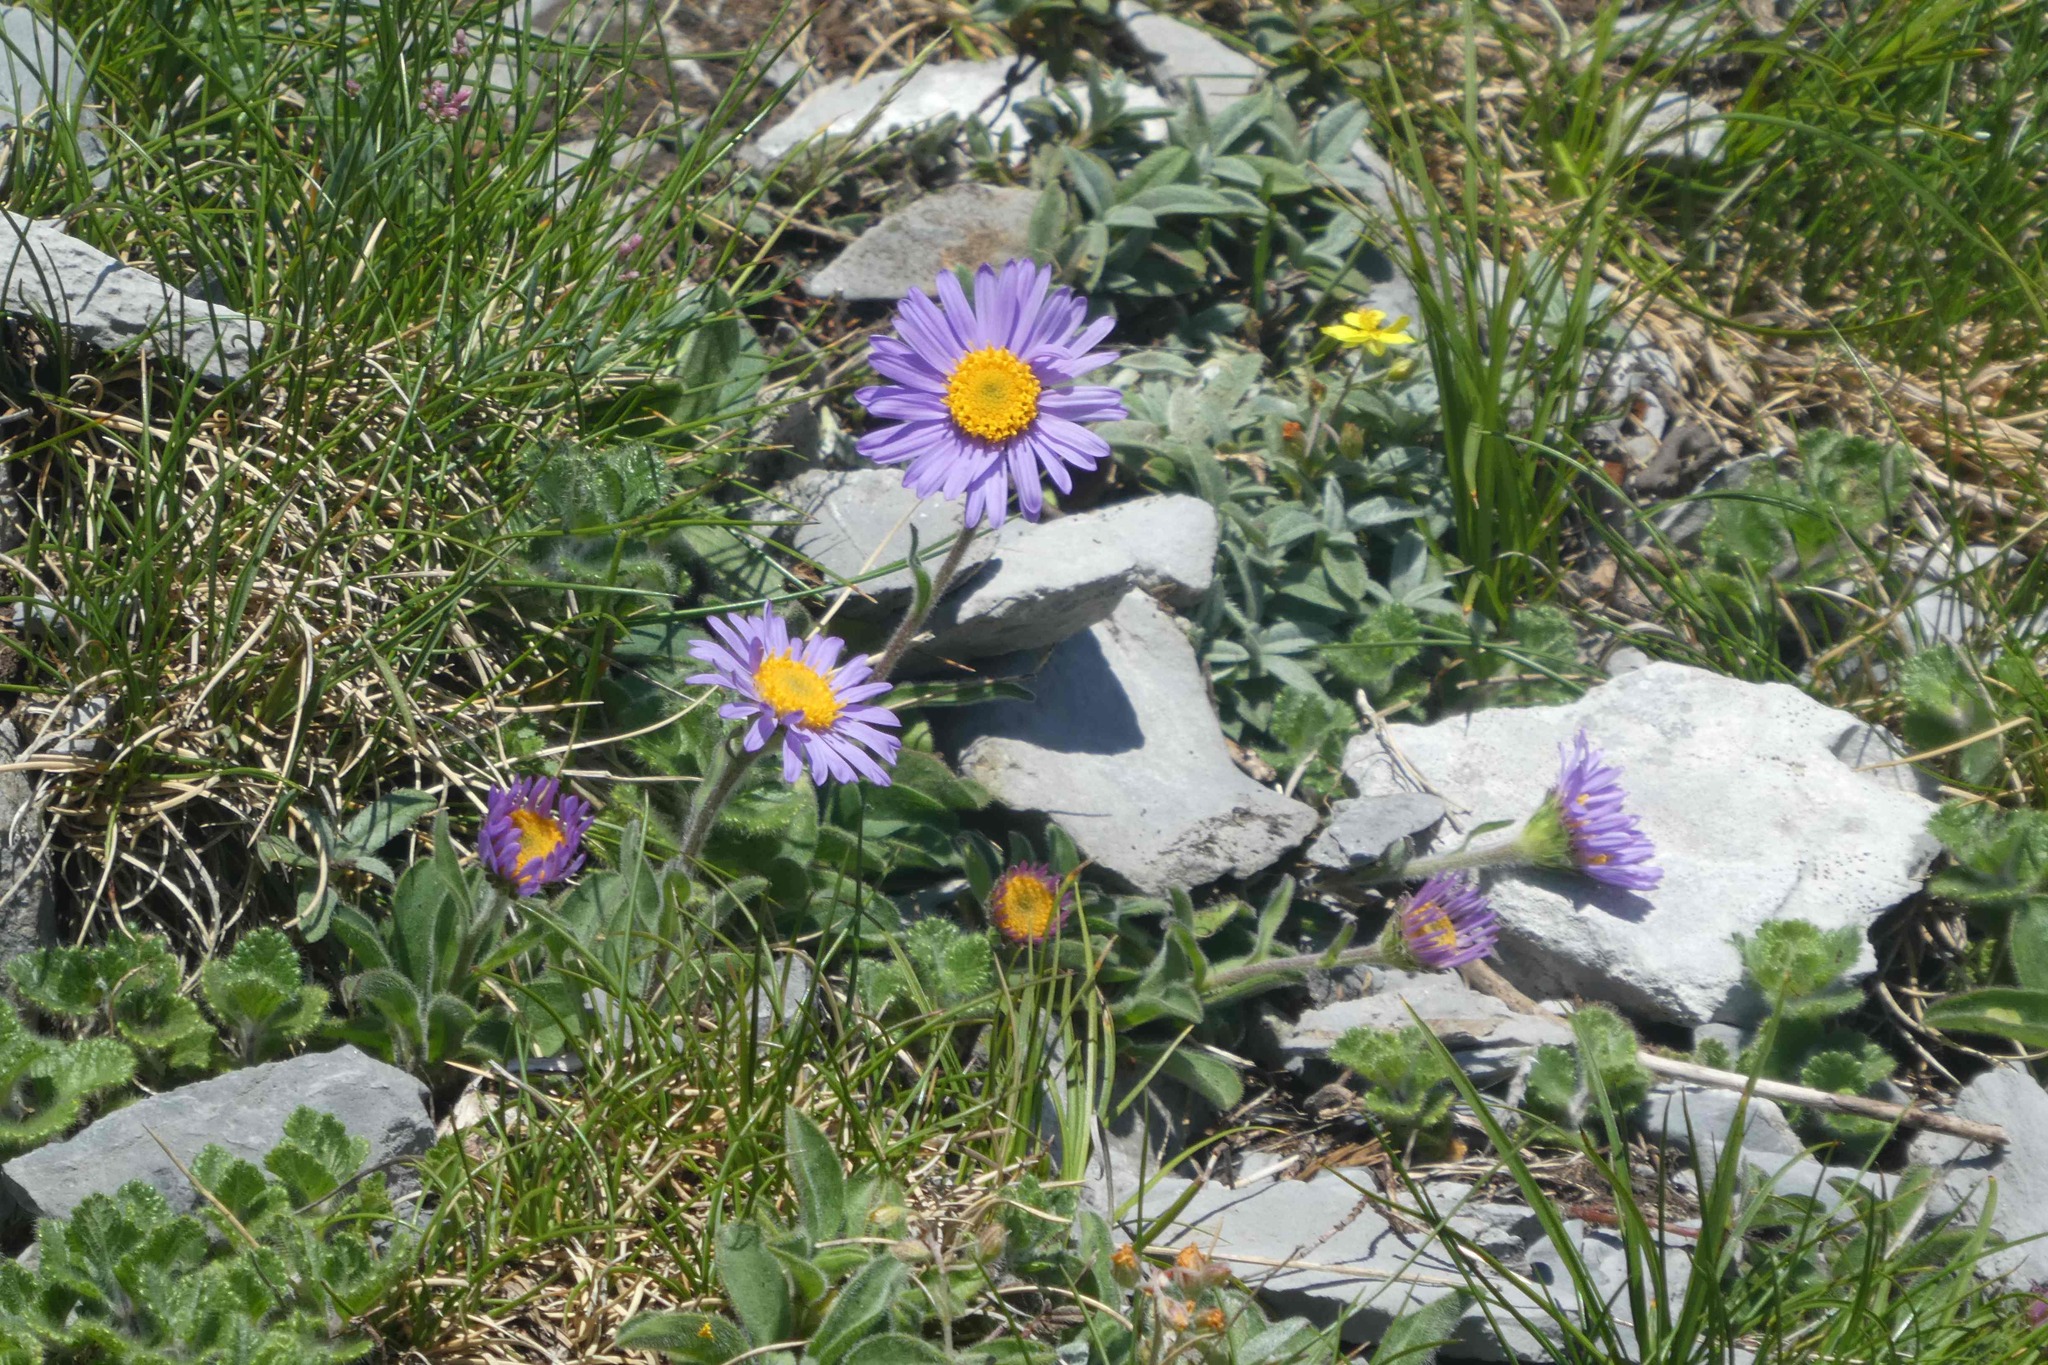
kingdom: Plantae
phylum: Tracheophyta
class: Magnoliopsida
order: Asterales
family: Asteraceae
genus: Aster
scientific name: Aster alpinus
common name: Alpine aster
